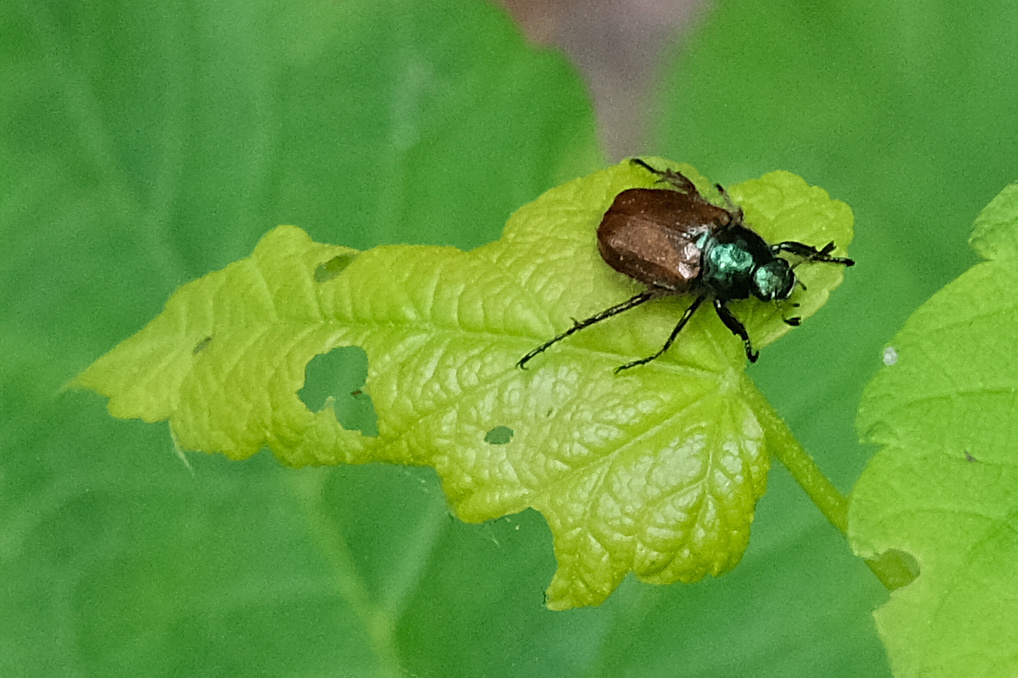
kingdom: Animalia
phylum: Arthropoda
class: Insecta
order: Coleoptera
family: Scarabaeidae
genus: Phyllopertha
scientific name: Phyllopertha horticola
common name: Garden chafer
